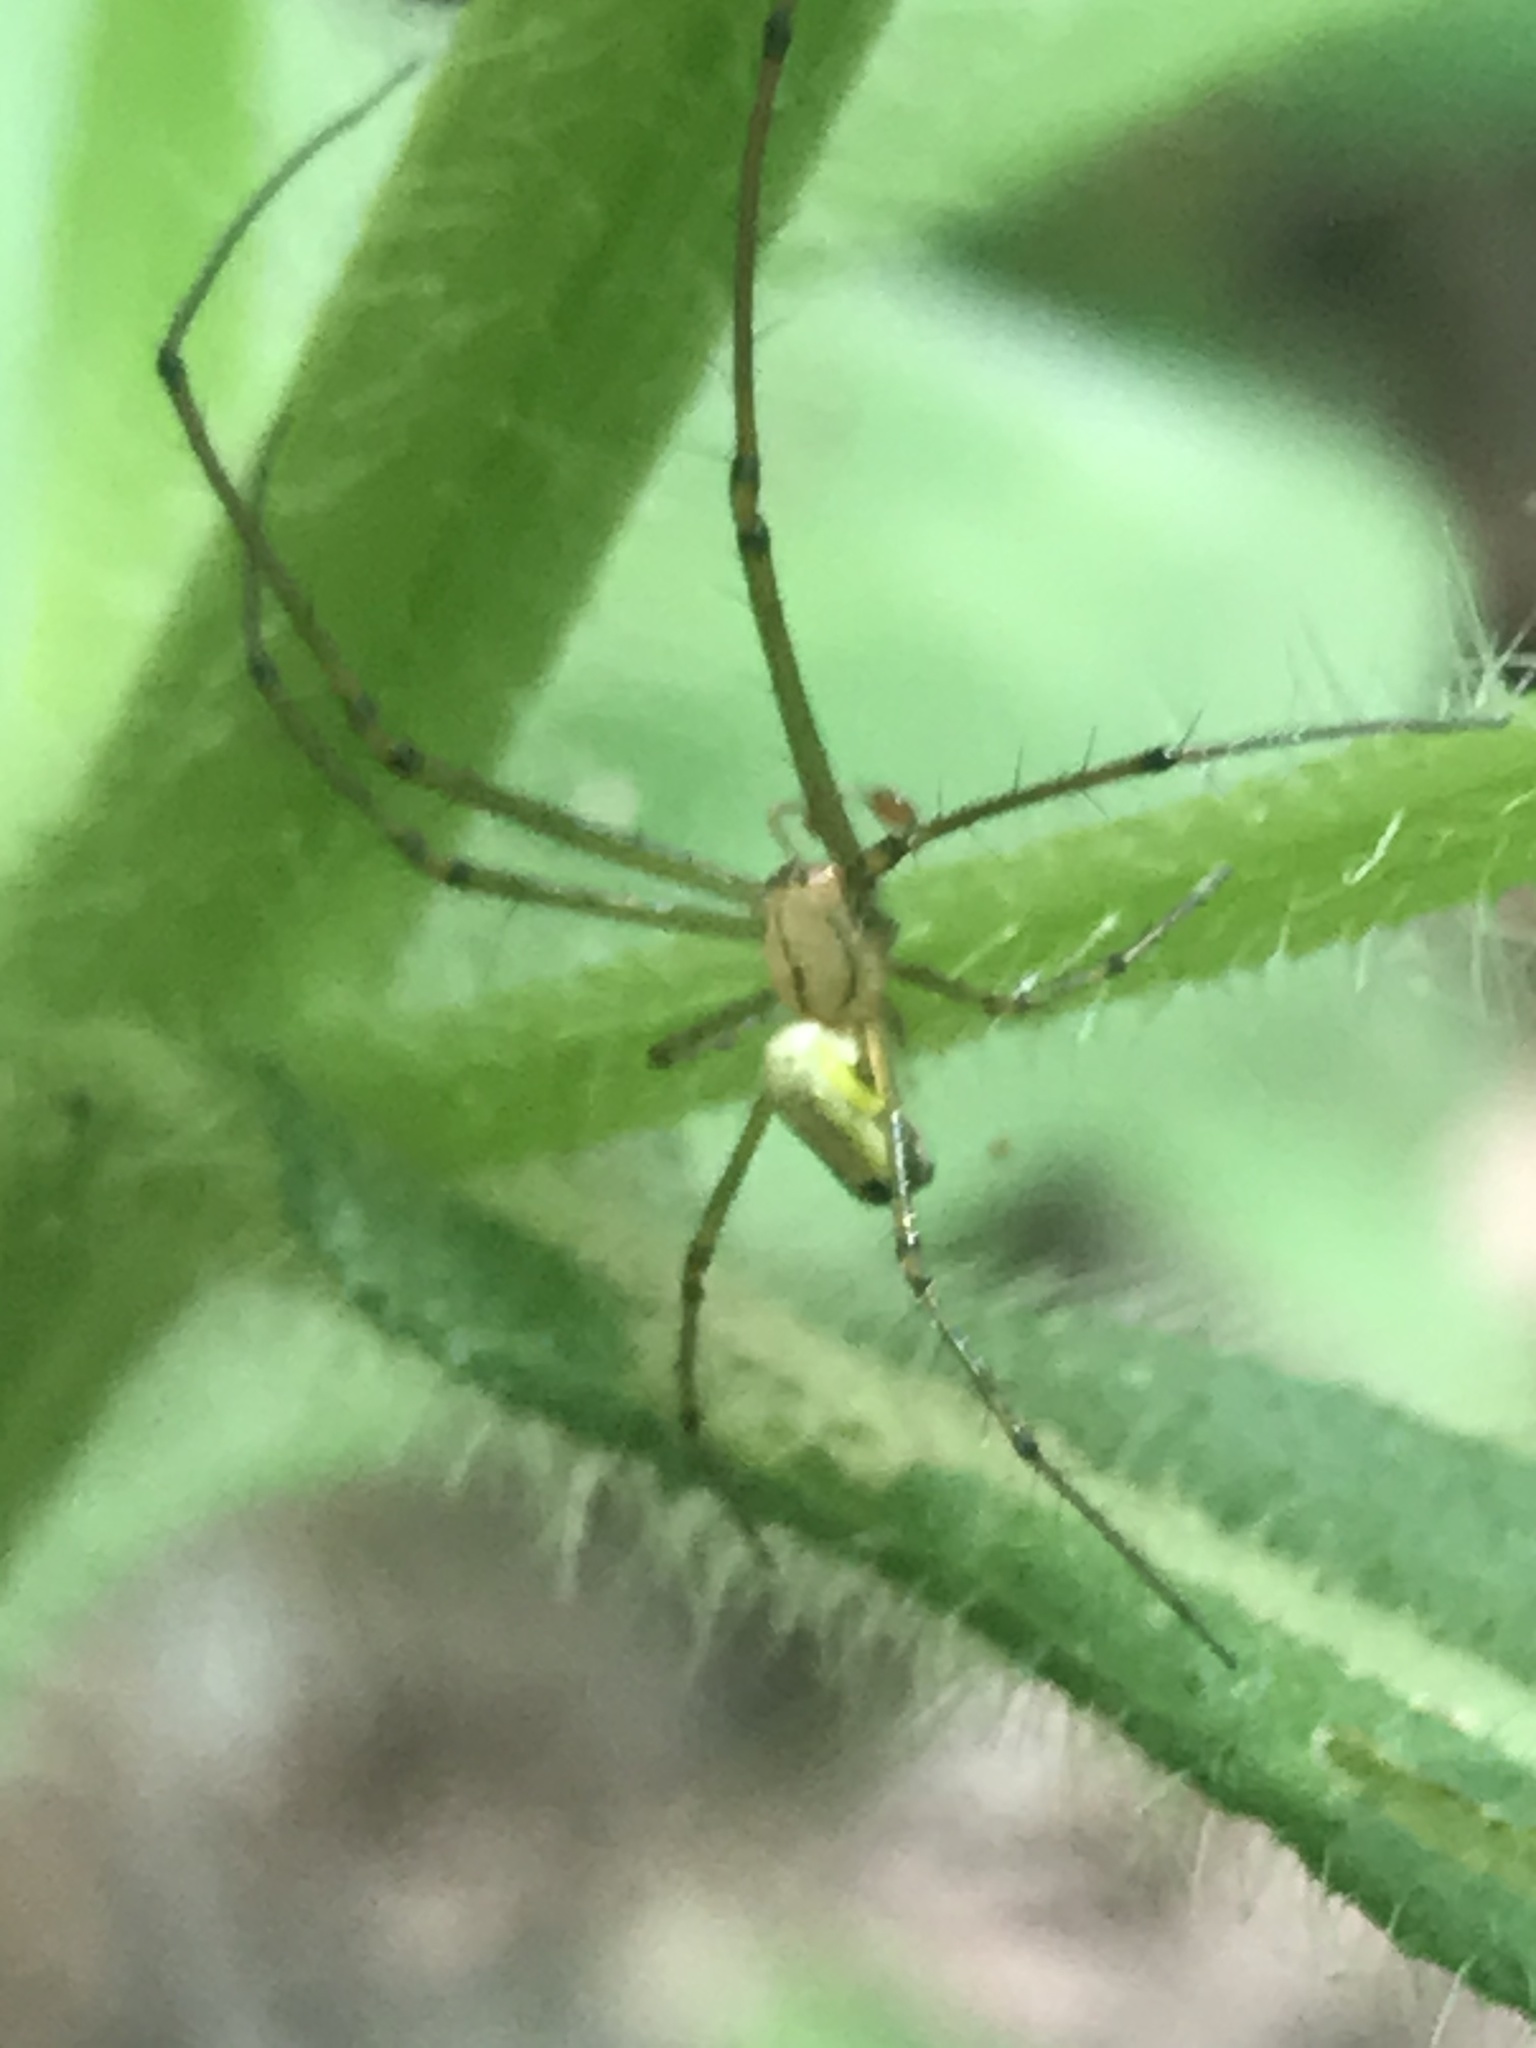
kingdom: Animalia
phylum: Arthropoda
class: Arachnida
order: Araneae
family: Tetragnathidae
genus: Leucauge
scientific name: Leucauge venusta
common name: Longjawed orb weavers
